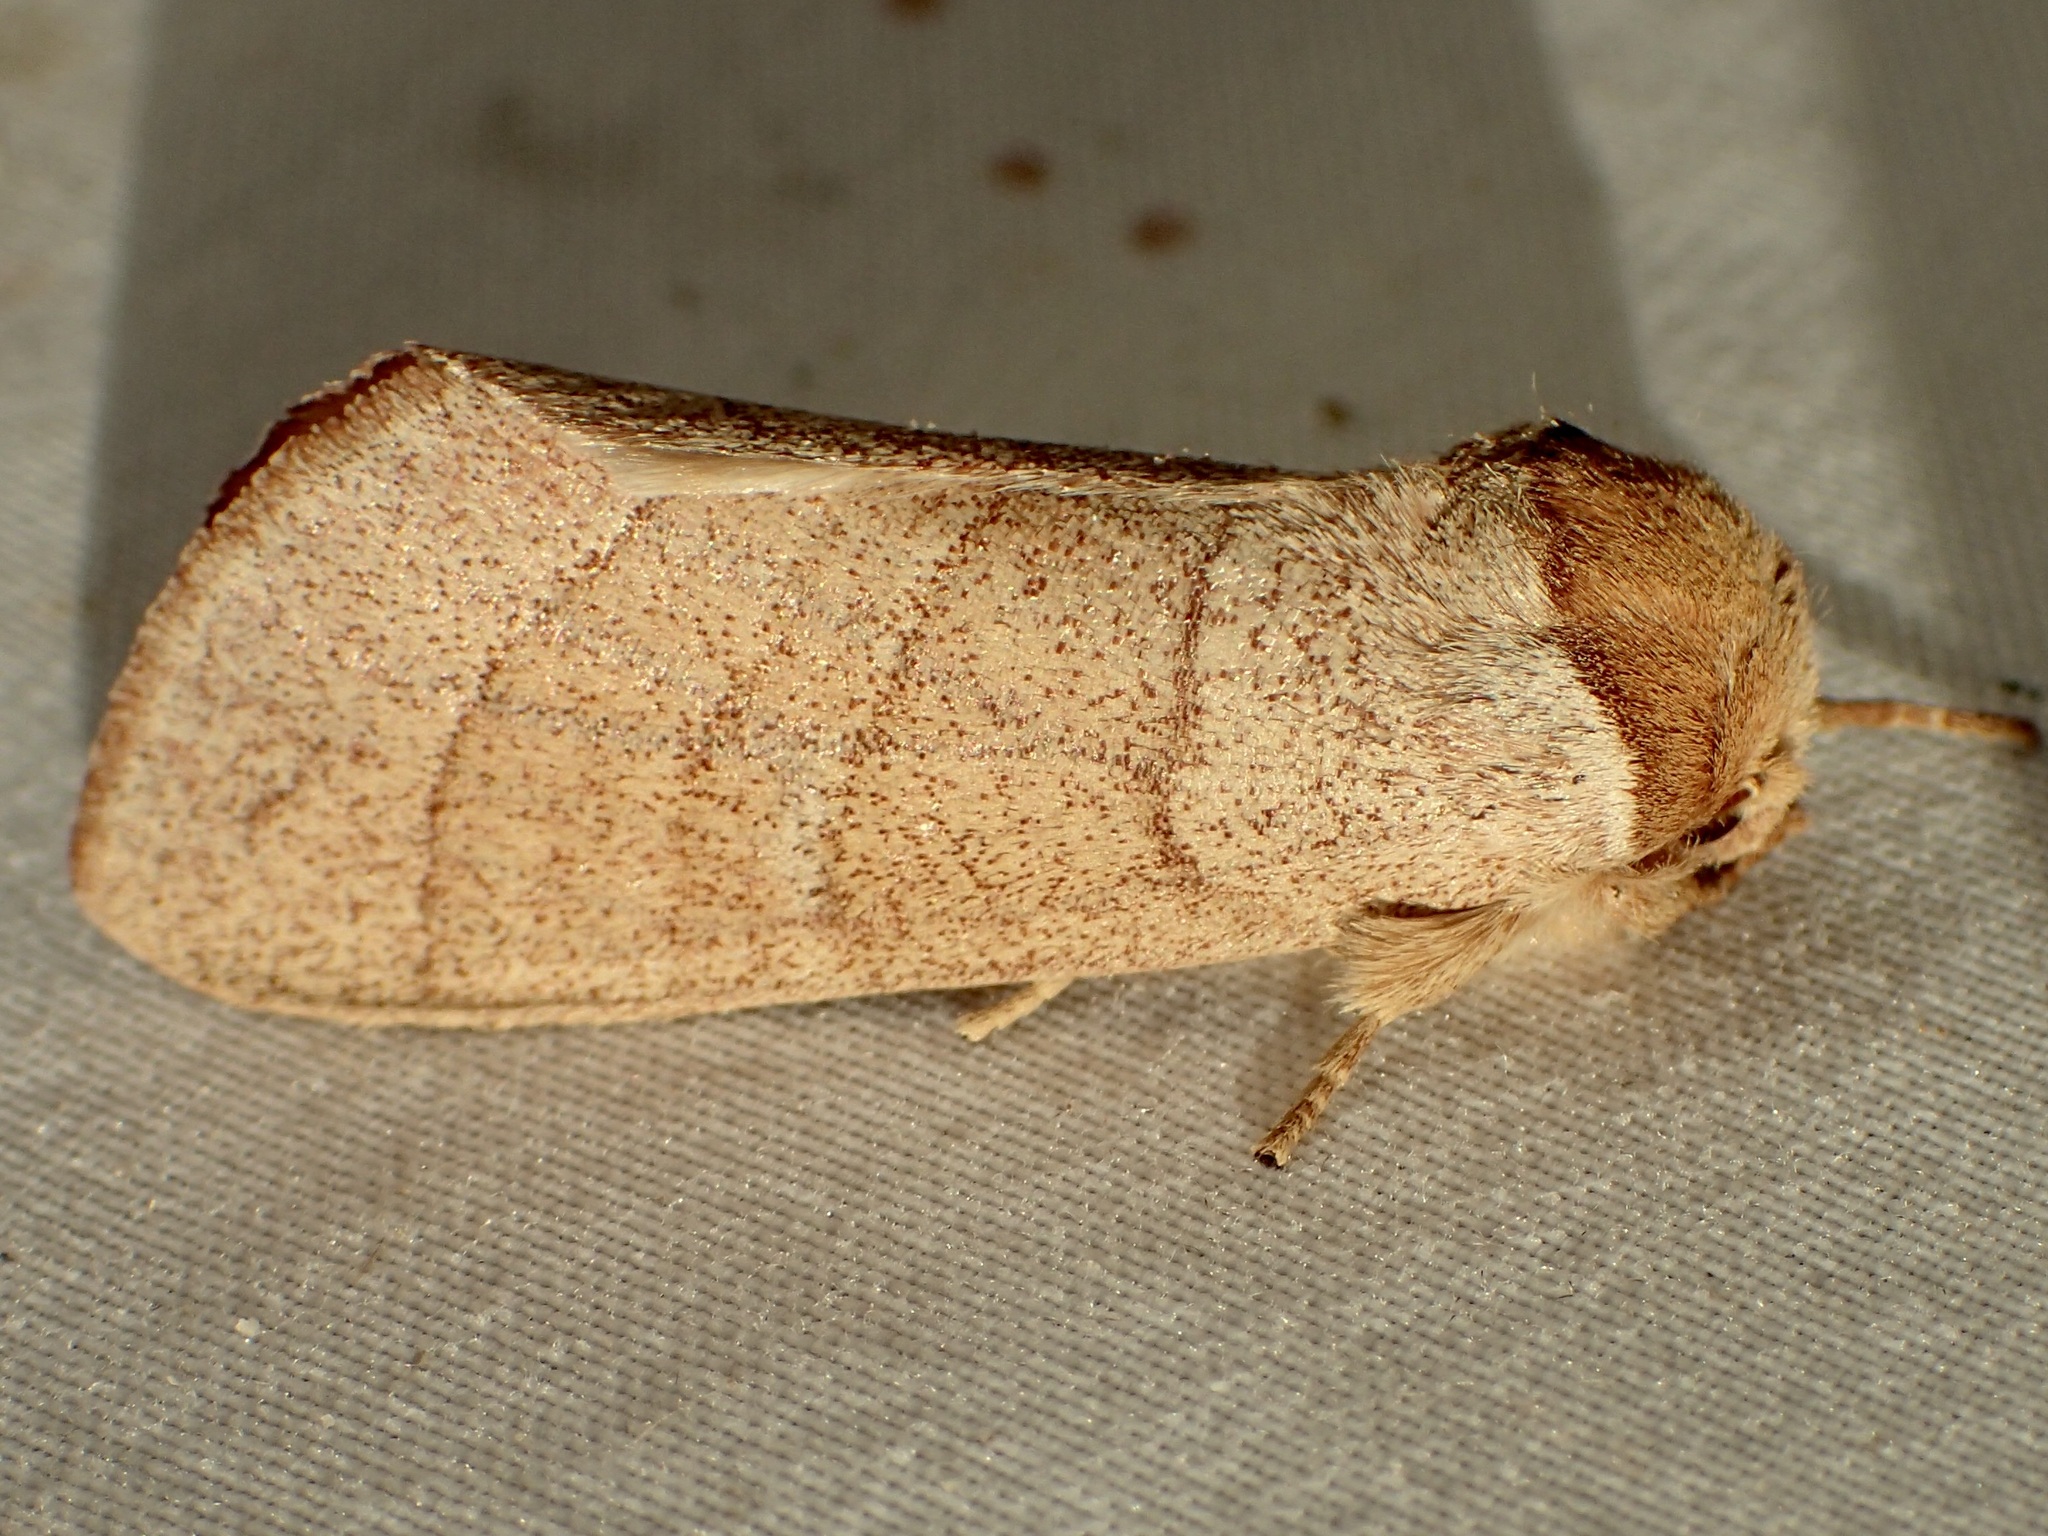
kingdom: Animalia
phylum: Arthropoda
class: Insecta
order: Lepidoptera
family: Notodontidae
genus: Datana
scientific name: Datana perfusa
